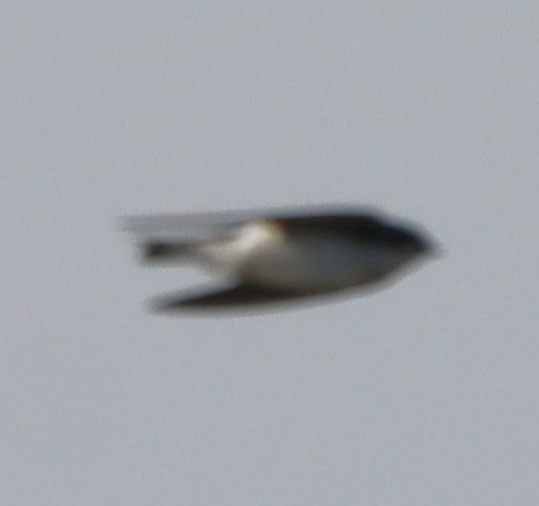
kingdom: Animalia
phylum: Chordata
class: Aves
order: Passeriformes
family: Hirundinidae
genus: Tachycineta
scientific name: Tachycineta bicolor
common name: Tree swallow
